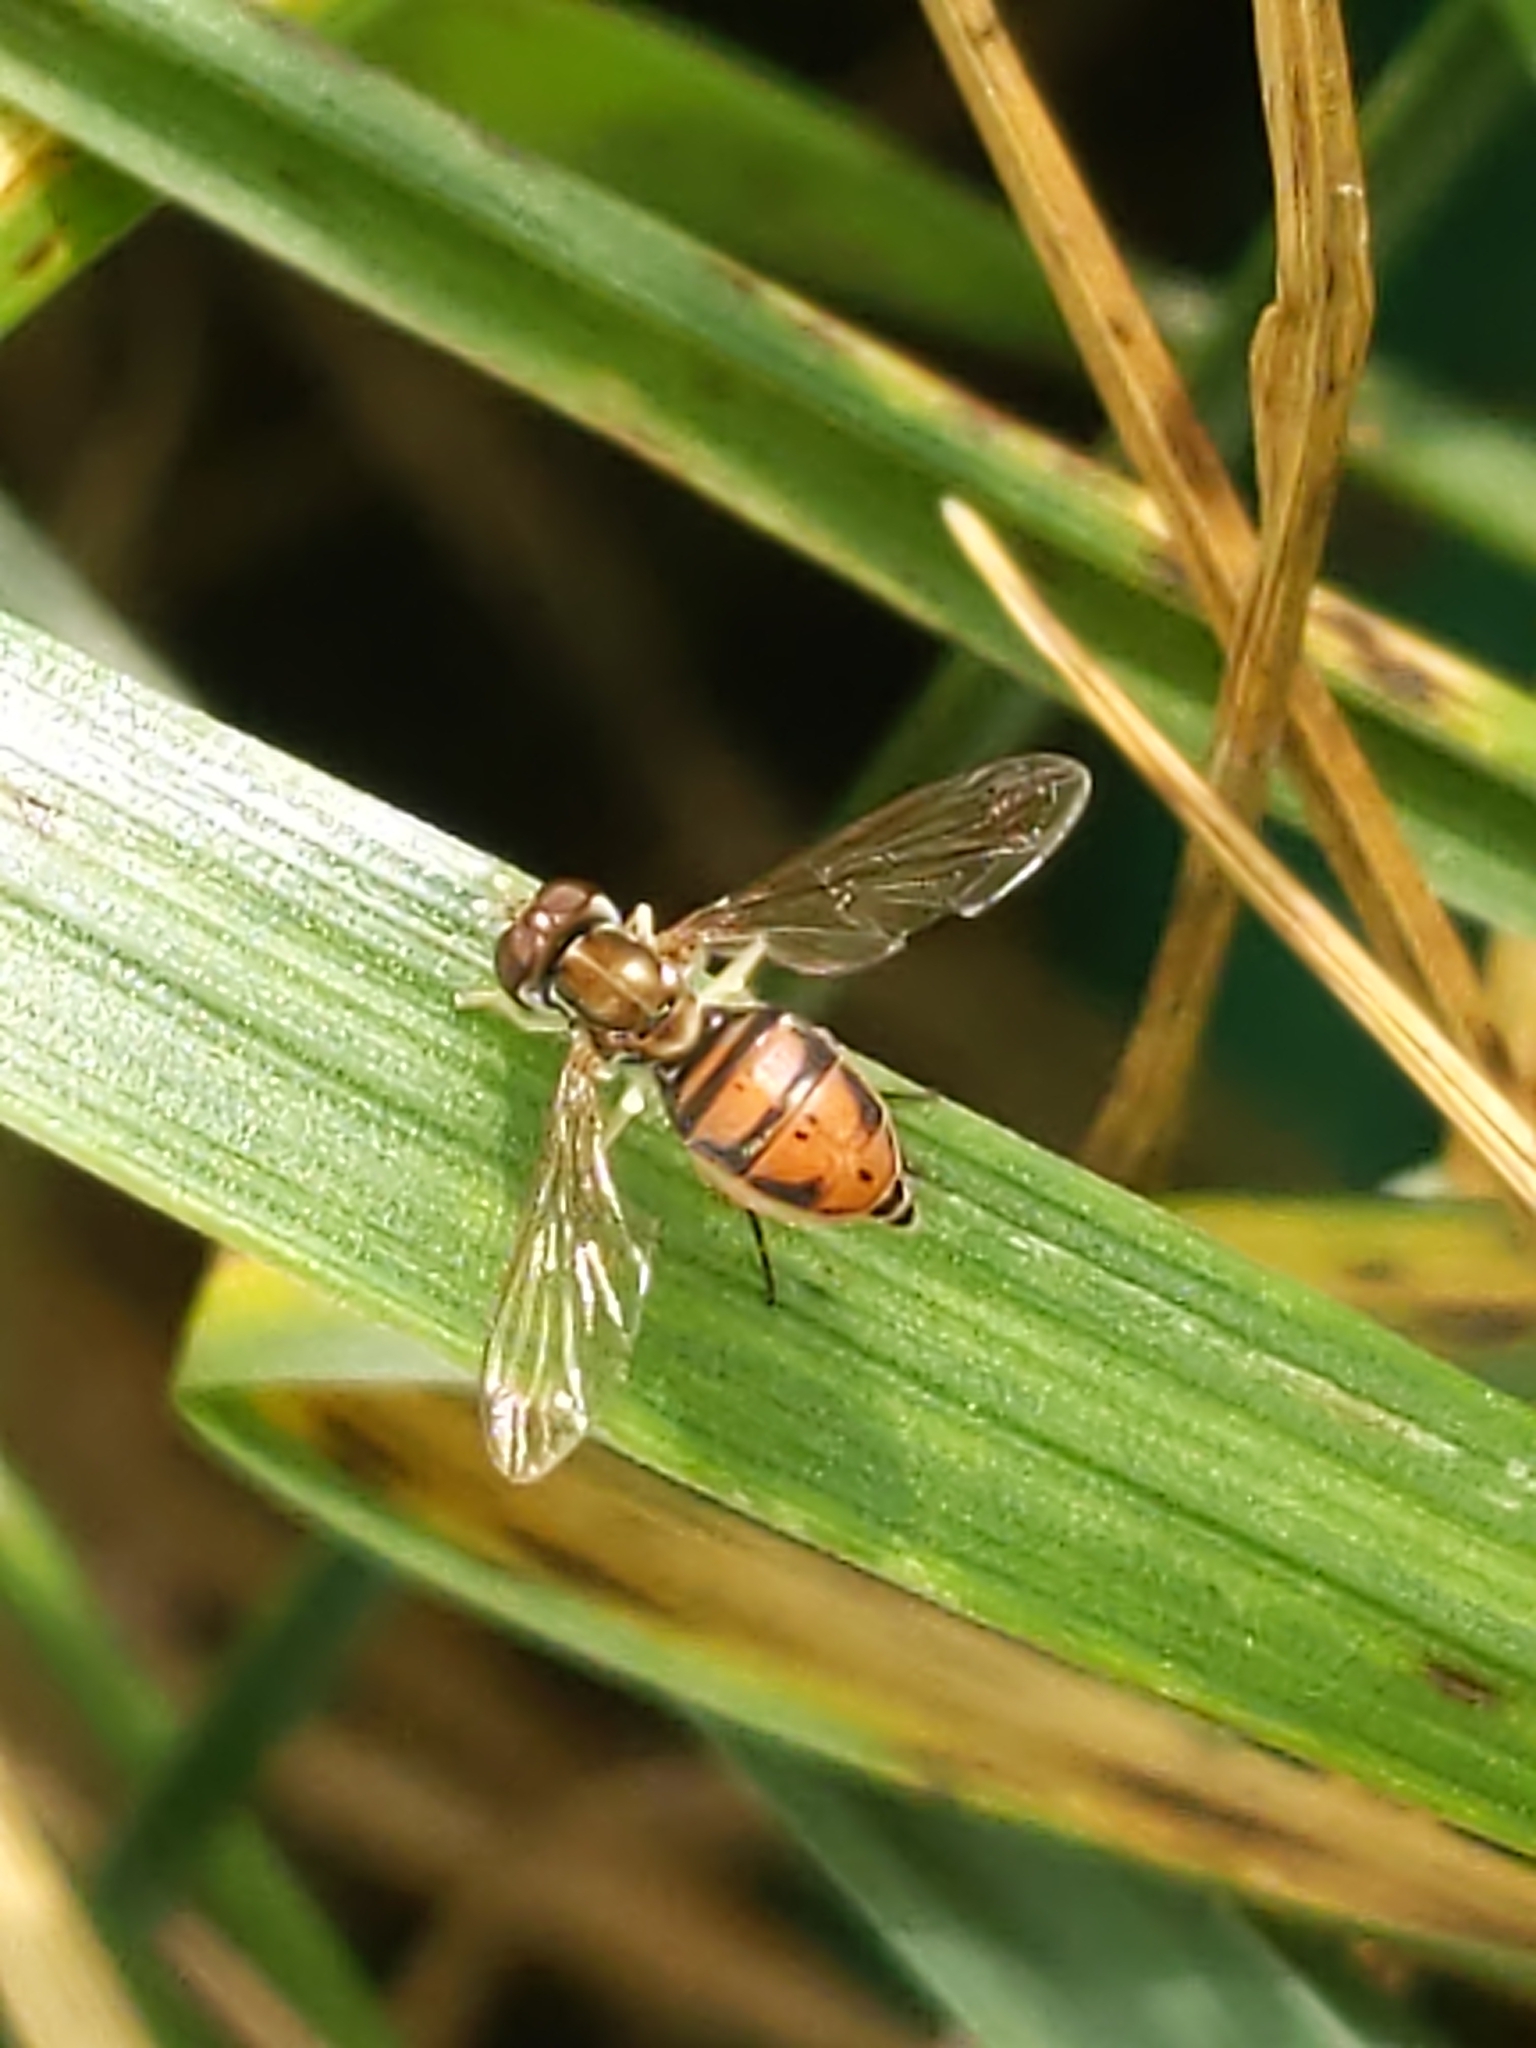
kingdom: Animalia
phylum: Arthropoda
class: Insecta
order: Diptera
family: Syrphidae
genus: Toxomerus
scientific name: Toxomerus marginatus
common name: Syrphid fly
